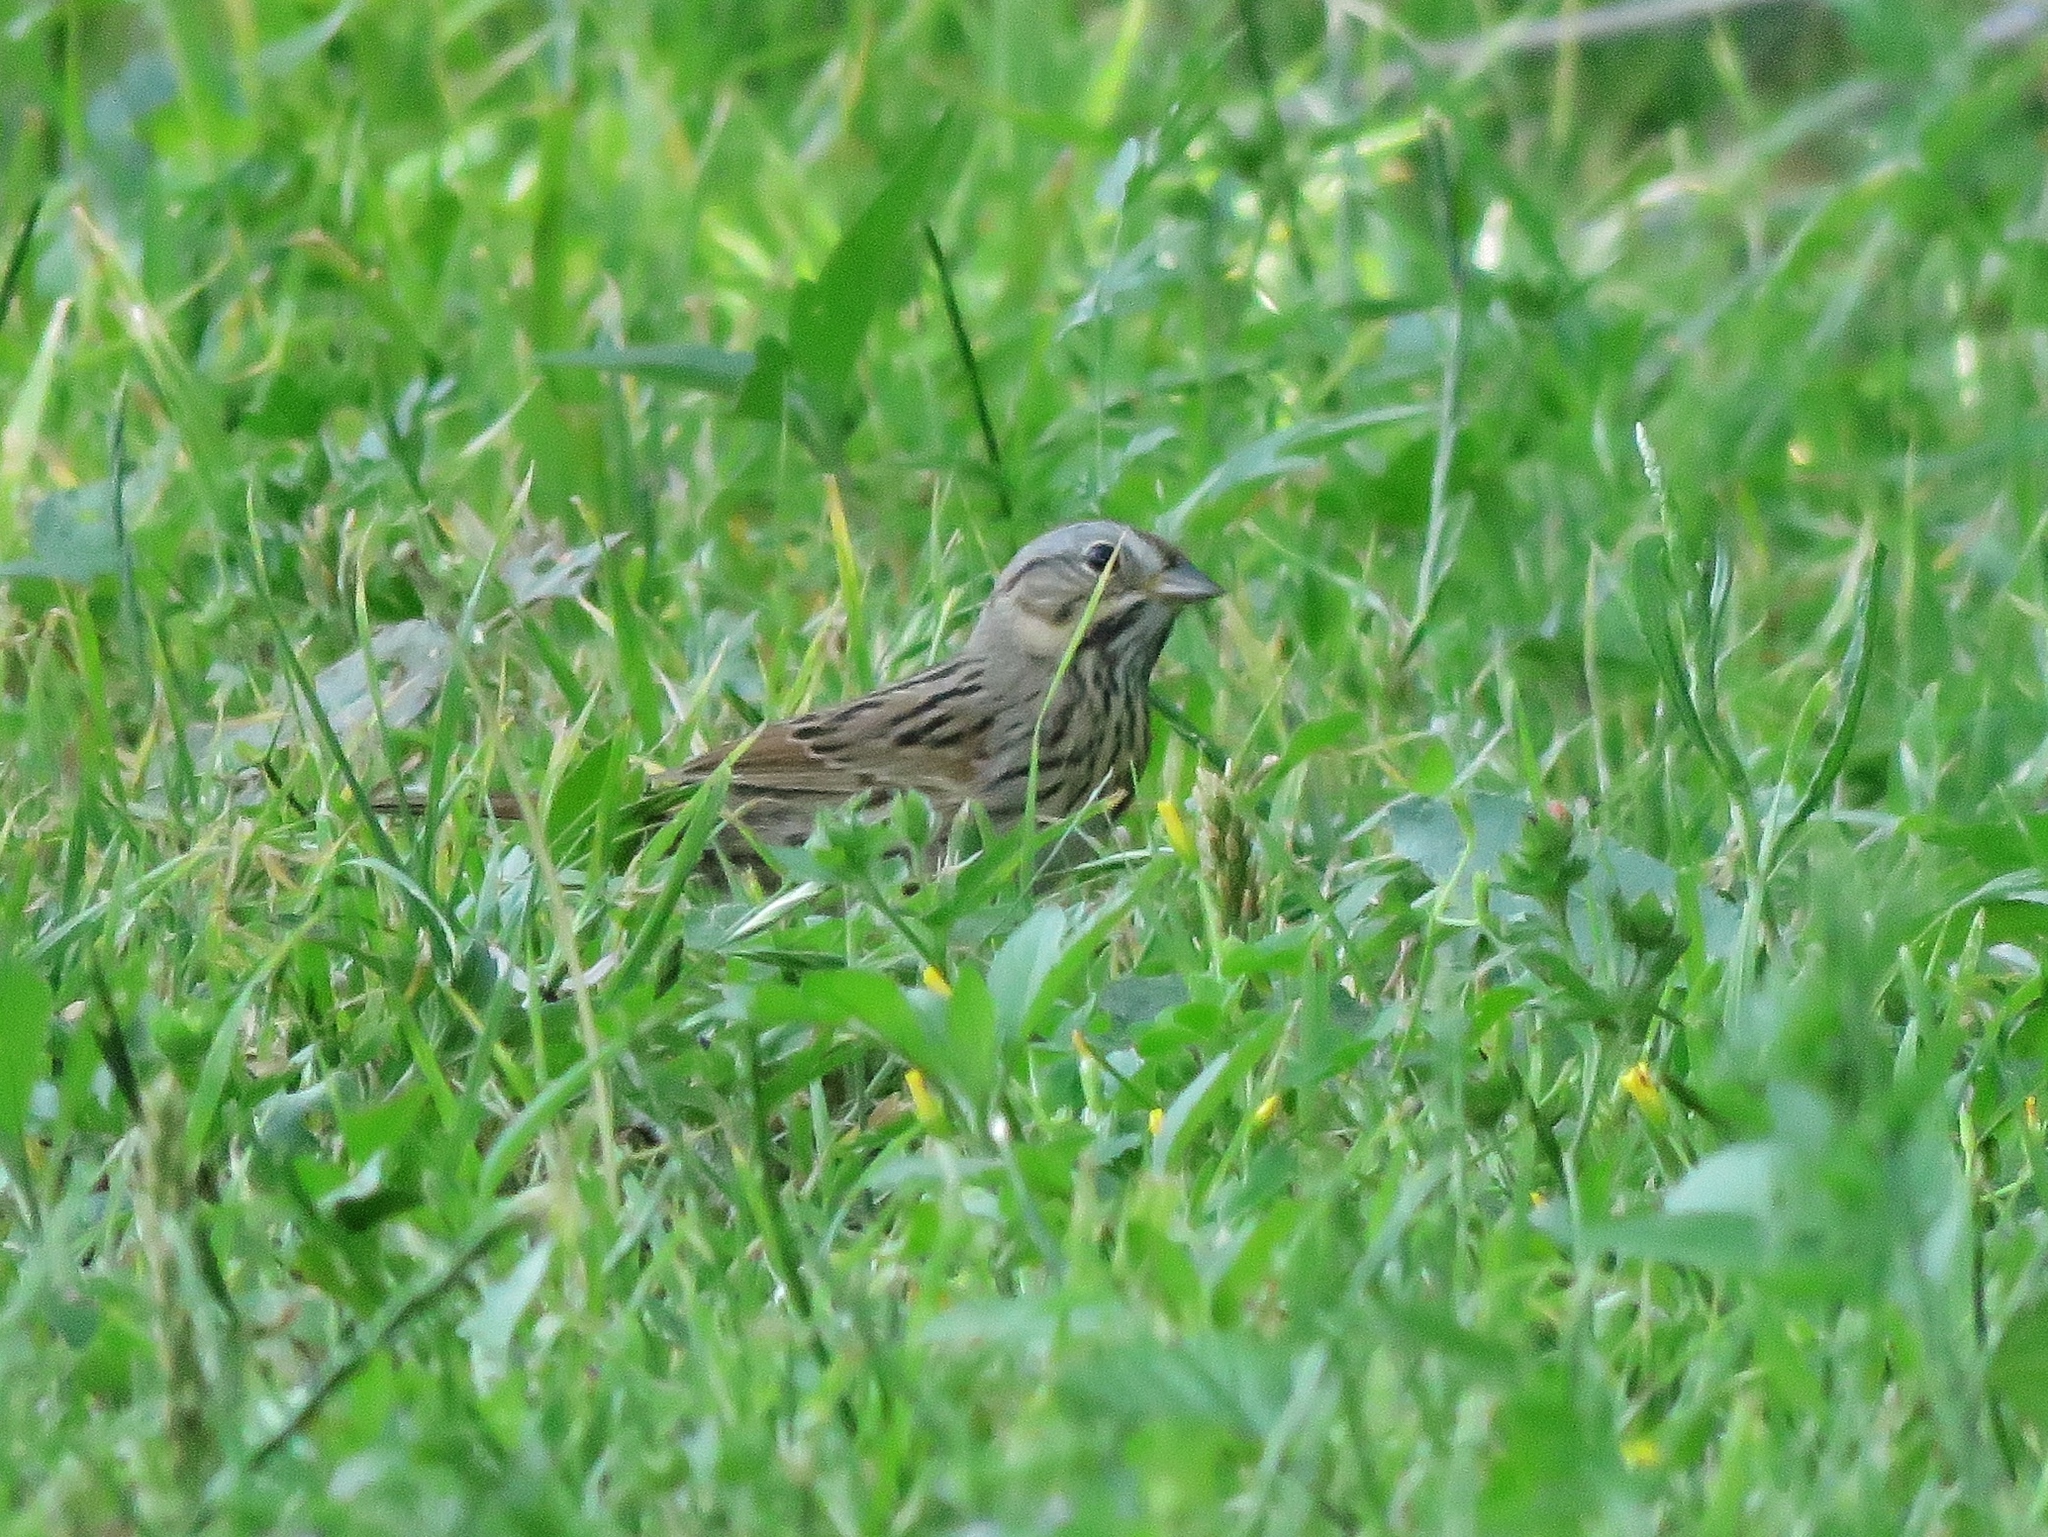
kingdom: Animalia
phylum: Chordata
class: Aves
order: Passeriformes
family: Passerellidae
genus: Melospiza
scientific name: Melospiza lincolnii
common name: Lincoln's sparrow
